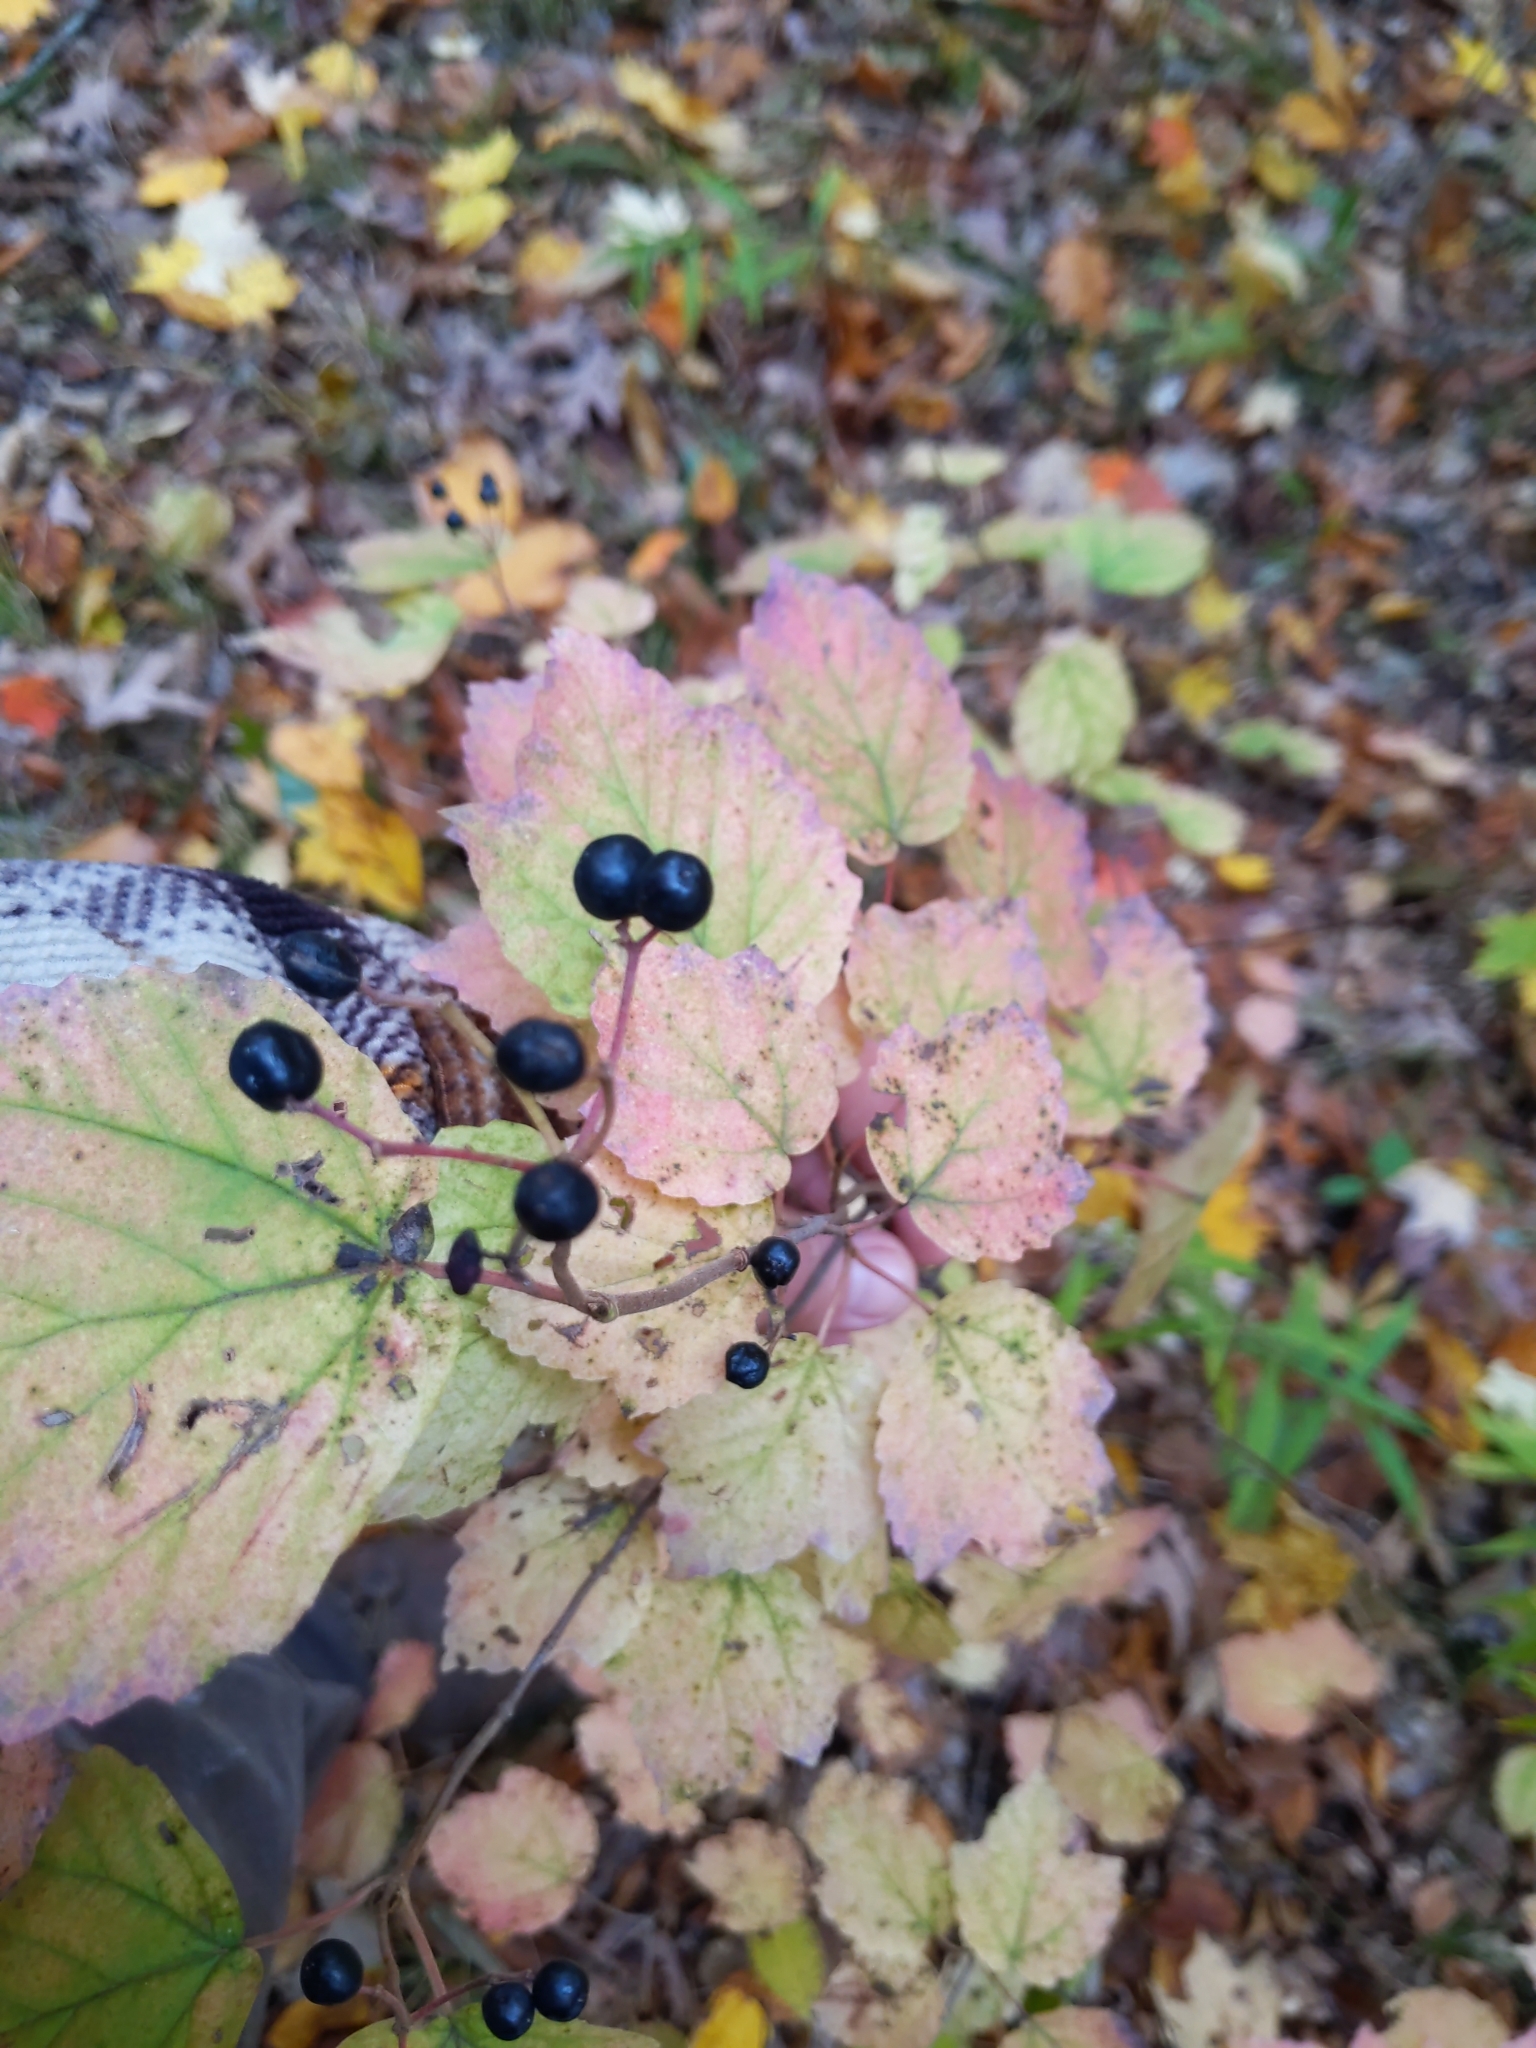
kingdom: Plantae
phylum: Tracheophyta
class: Magnoliopsida
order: Dipsacales
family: Viburnaceae
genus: Viburnum
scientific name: Viburnum acerifolium
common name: Dockmackie
